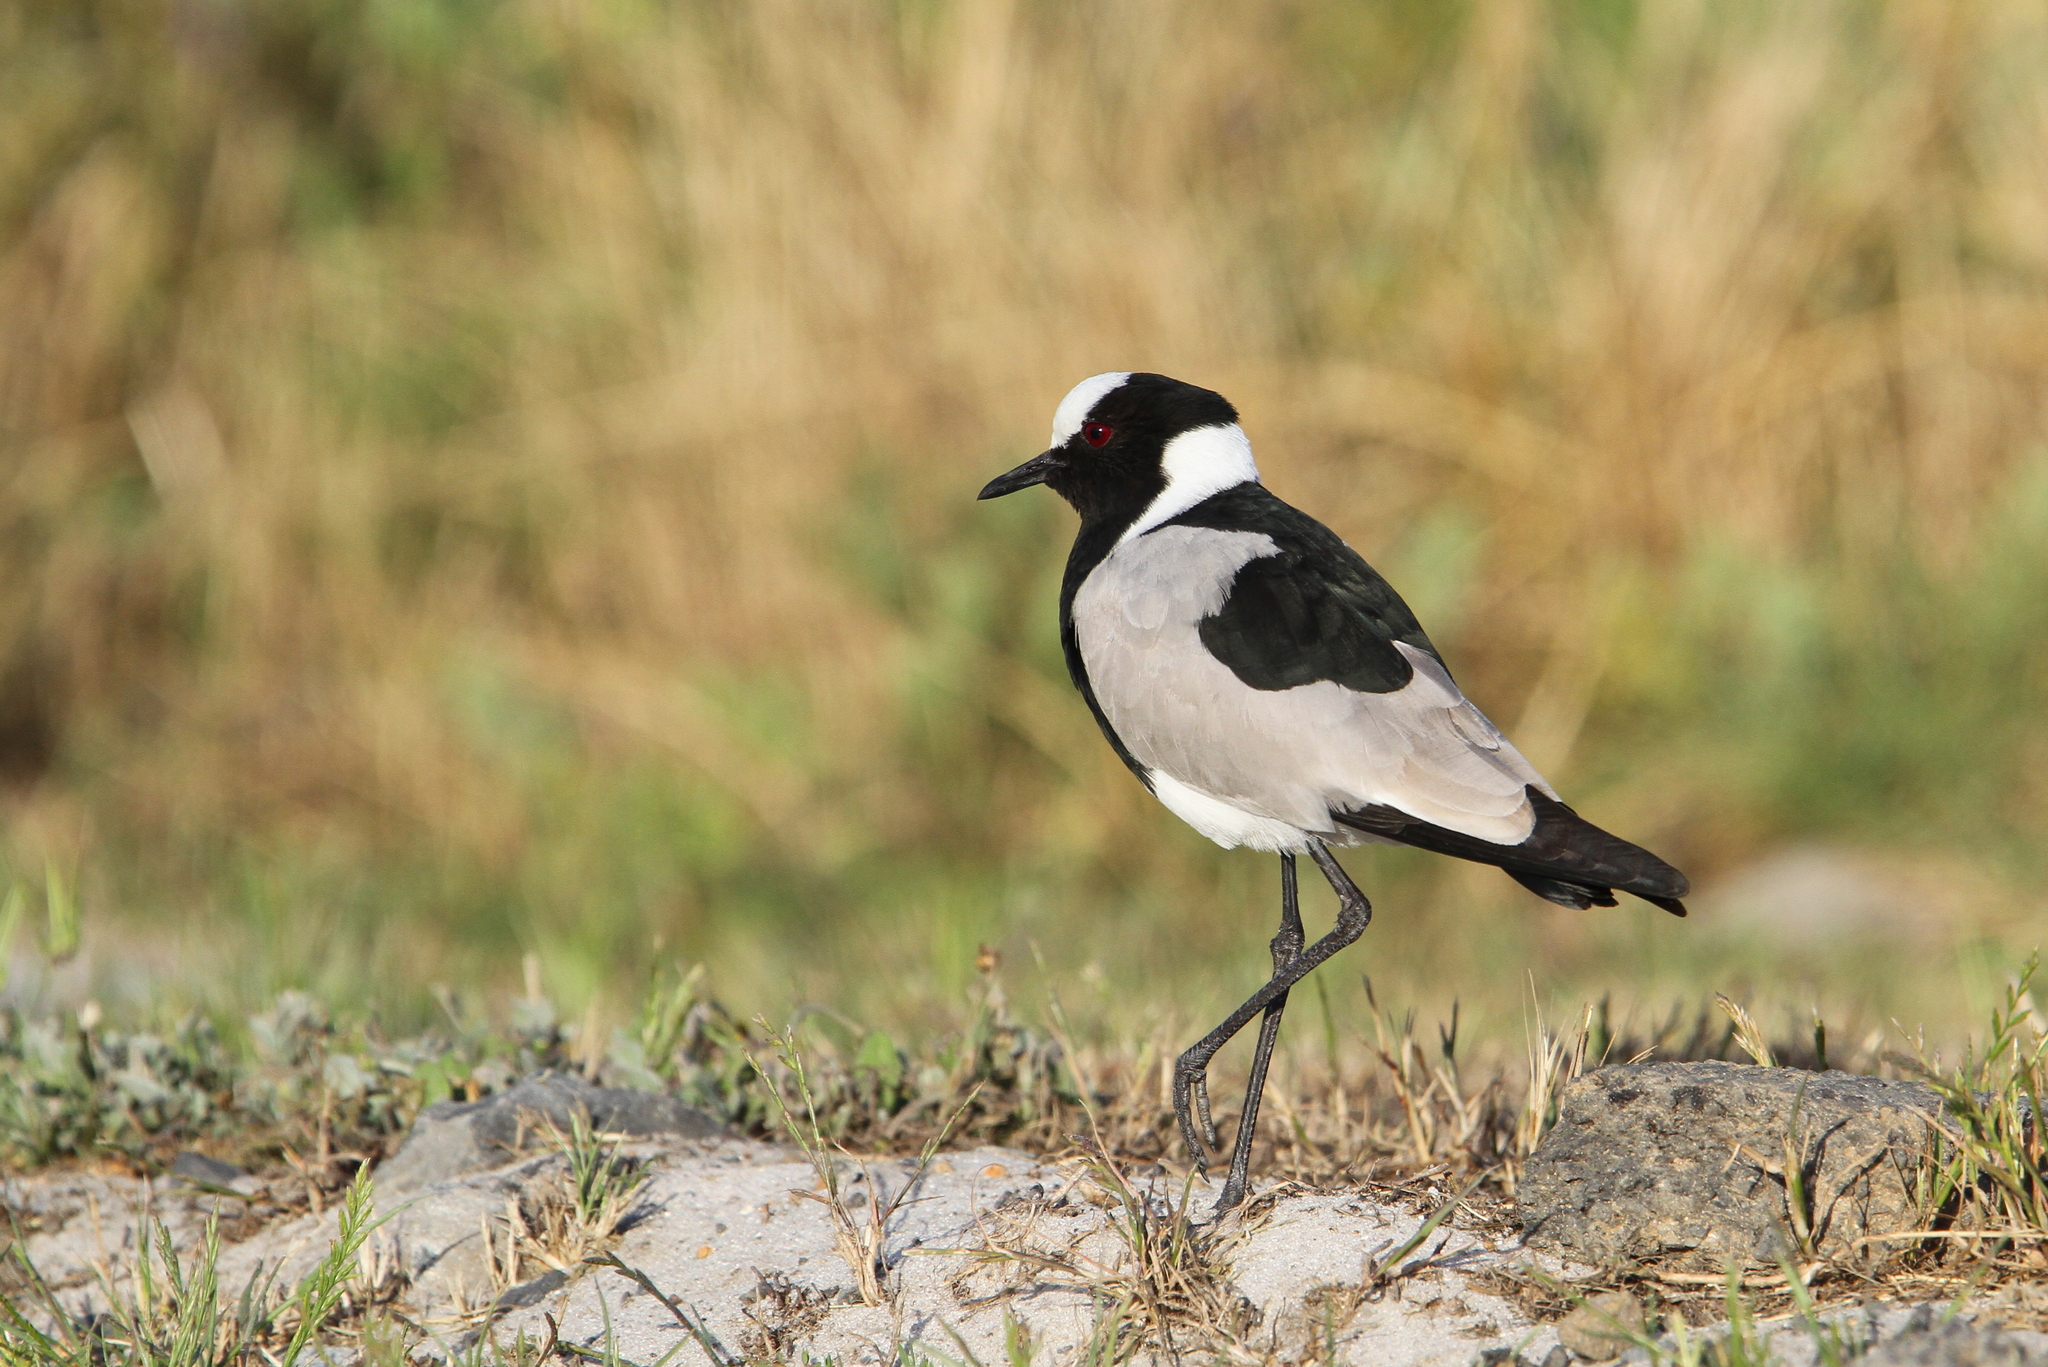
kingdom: Animalia
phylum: Chordata
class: Aves
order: Charadriiformes
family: Charadriidae
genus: Vanellus
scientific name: Vanellus armatus
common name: Blacksmith lapwing
